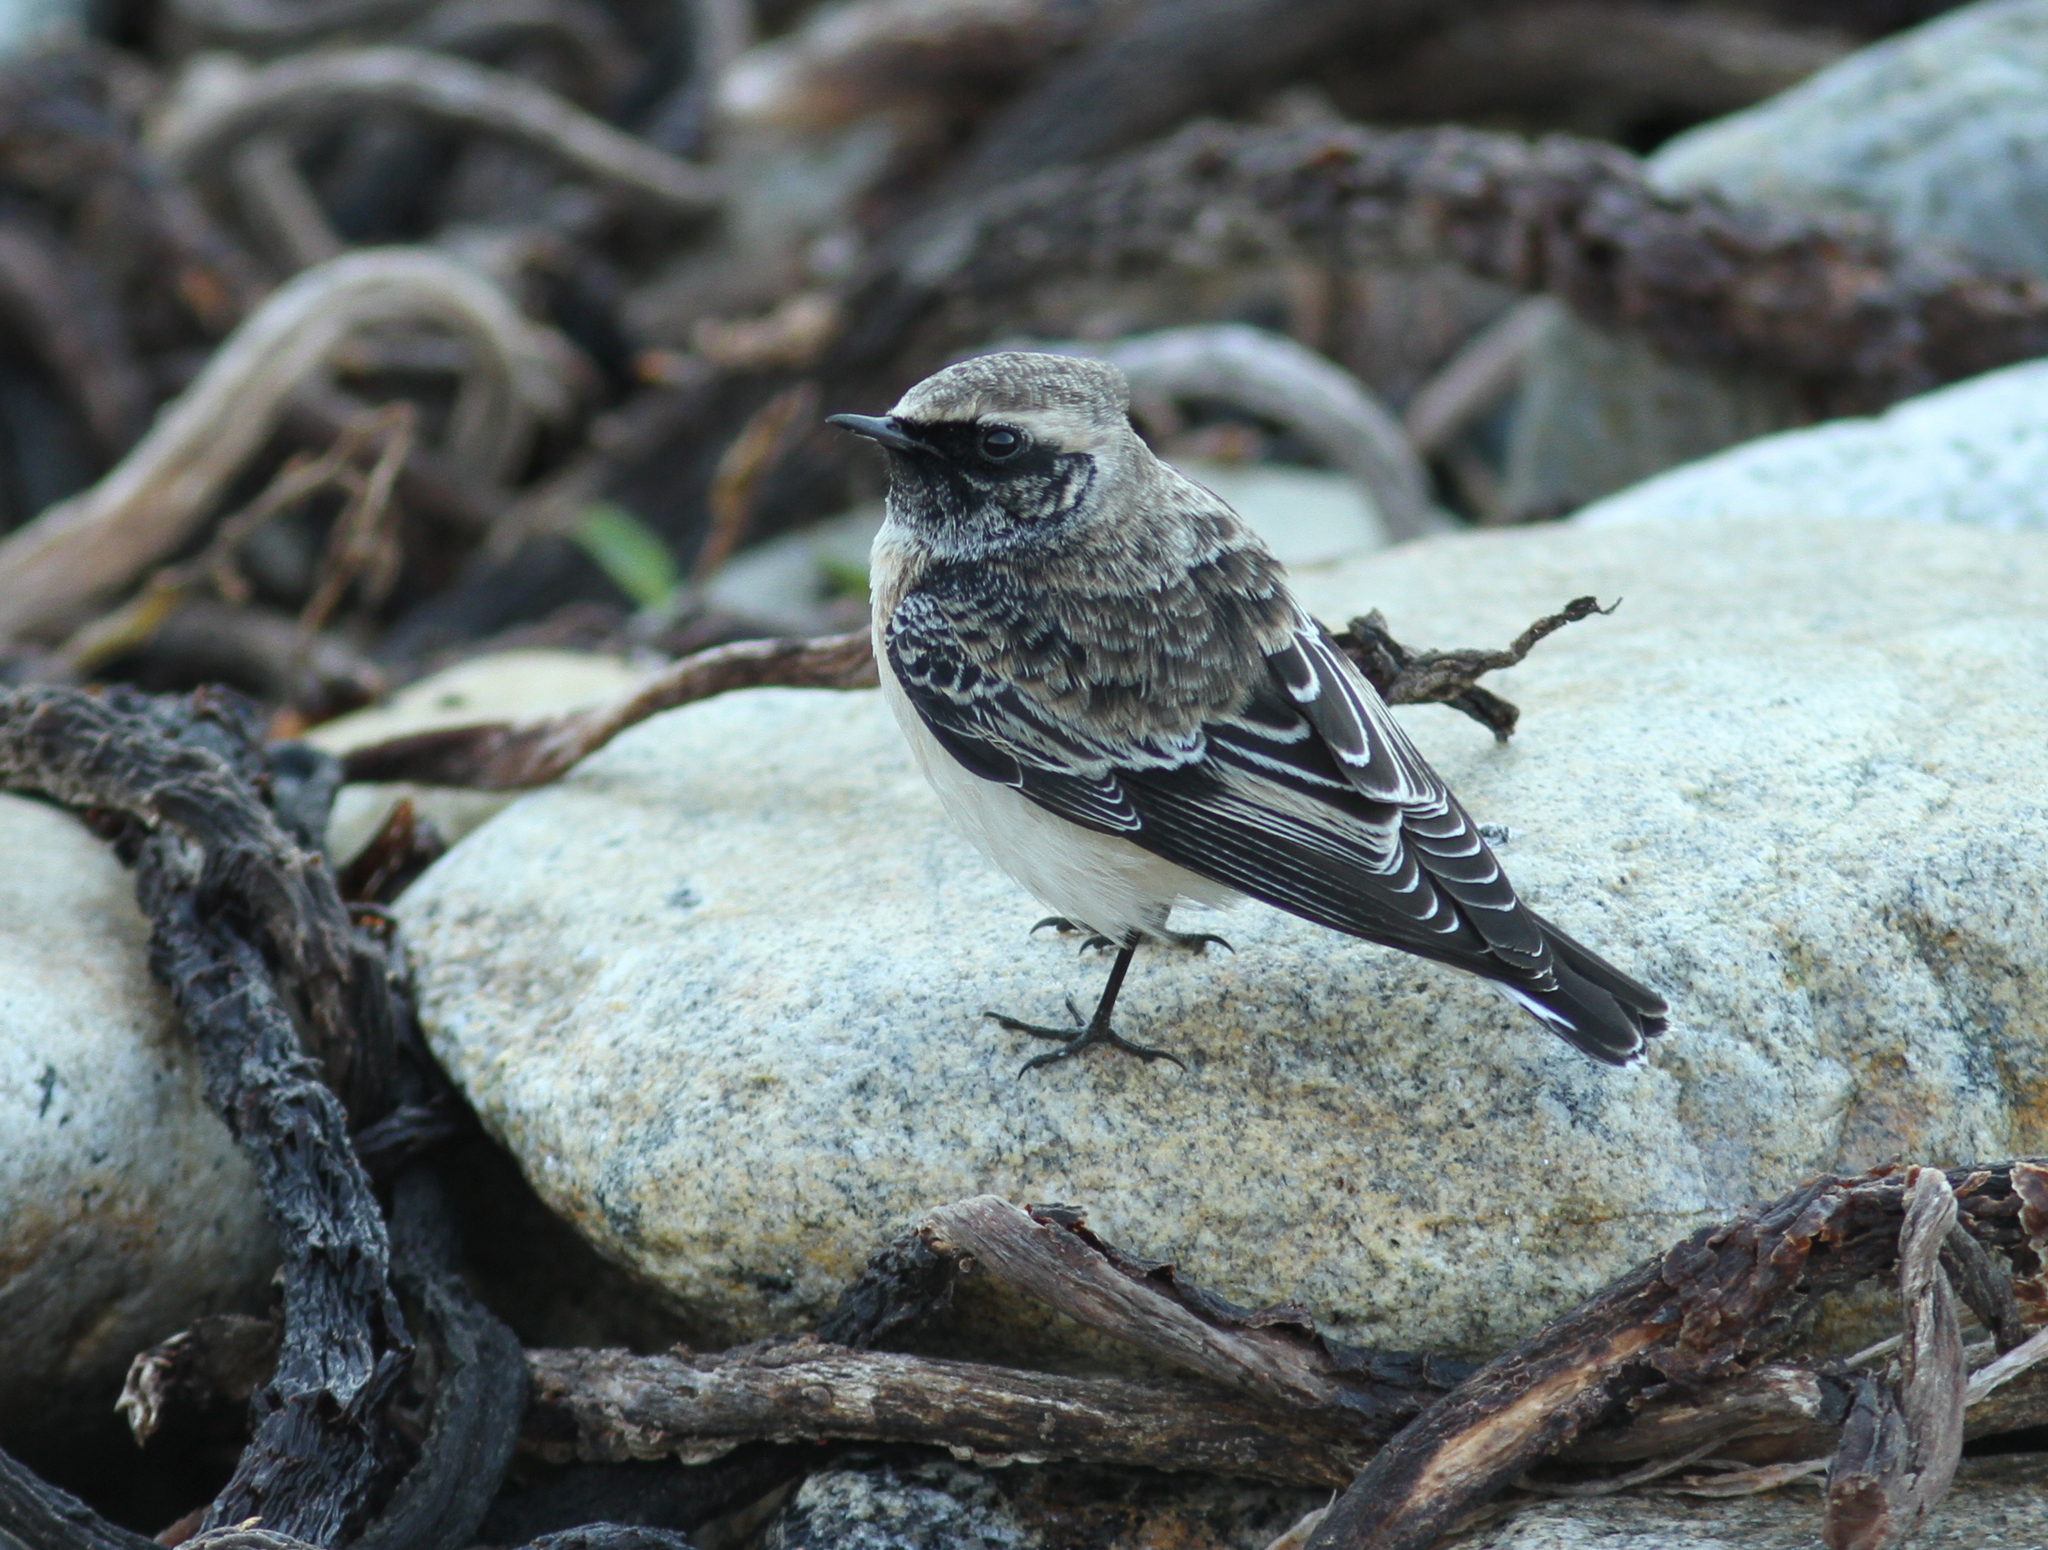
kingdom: Animalia
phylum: Chordata
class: Aves
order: Passeriformes
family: Muscicapidae
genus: Oenanthe
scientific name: Oenanthe pleschanka
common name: Pied wheatear
